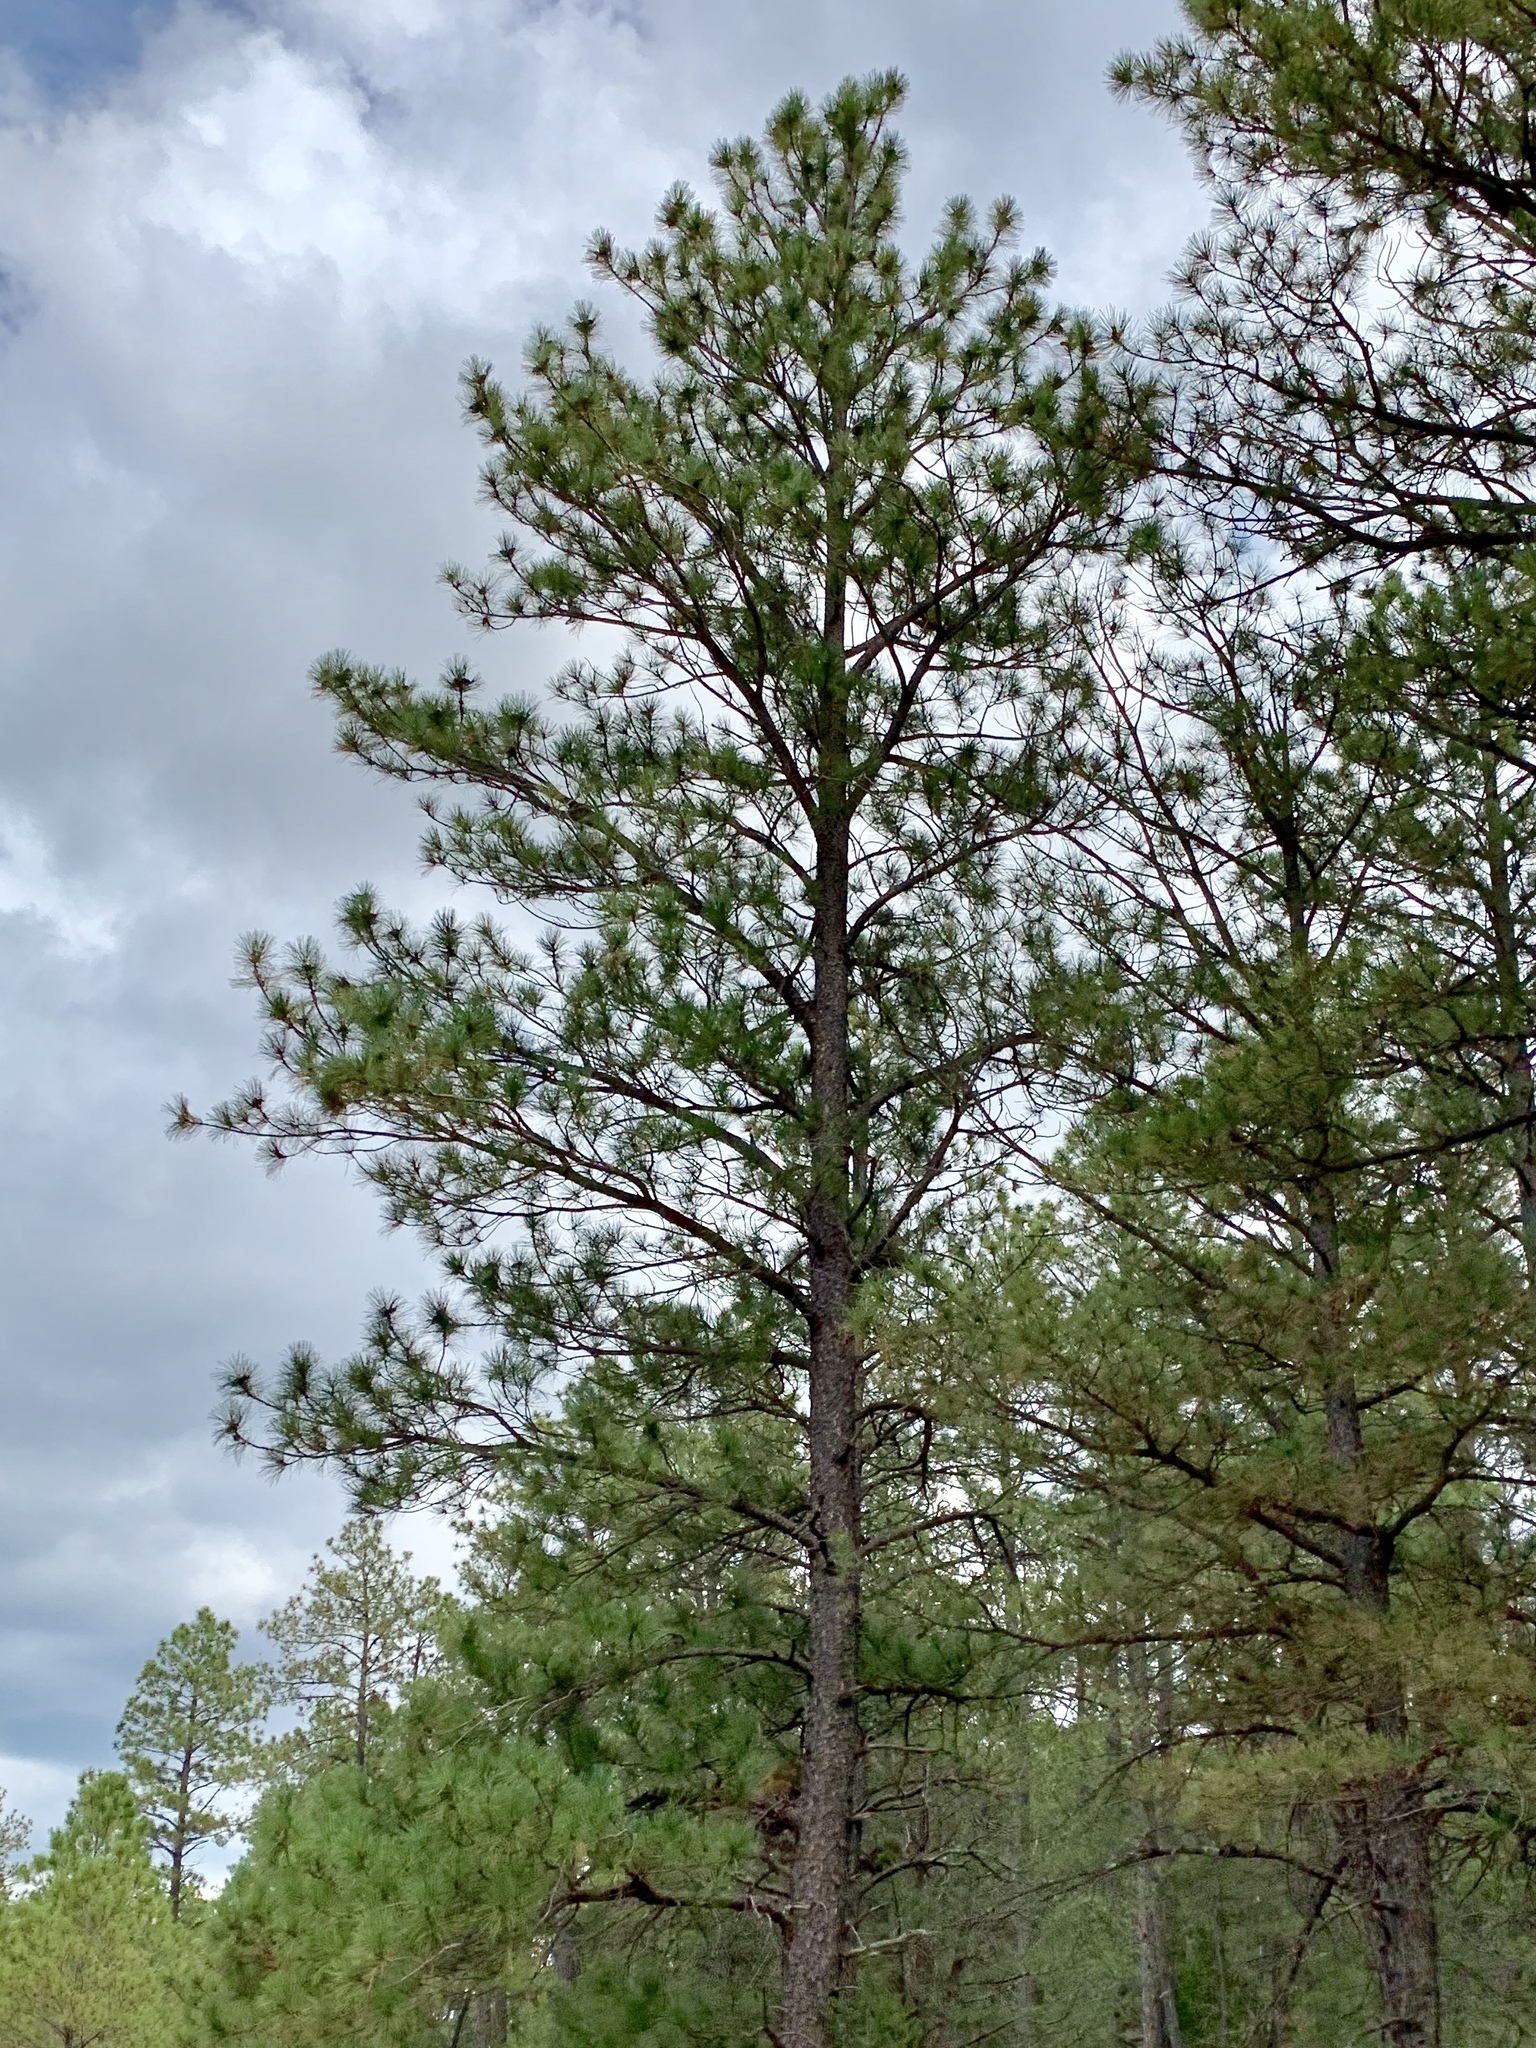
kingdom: Plantae
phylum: Tracheophyta
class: Pinopsida
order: Pinales
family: Pinaceae
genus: Pinus
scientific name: Pinus ponderosa
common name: Western yellow-pine
